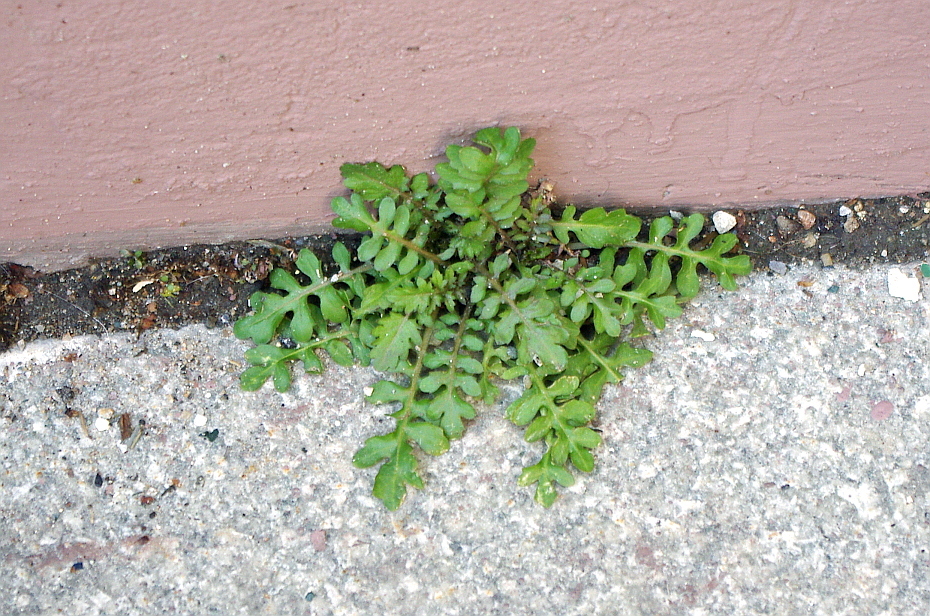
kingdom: Plantae
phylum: Tracheophyta
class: Magnoliopsida
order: Brassicales
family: Brassicaceae
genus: Rorippa
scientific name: Rorippa palustris
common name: Marsh yellow-cress
